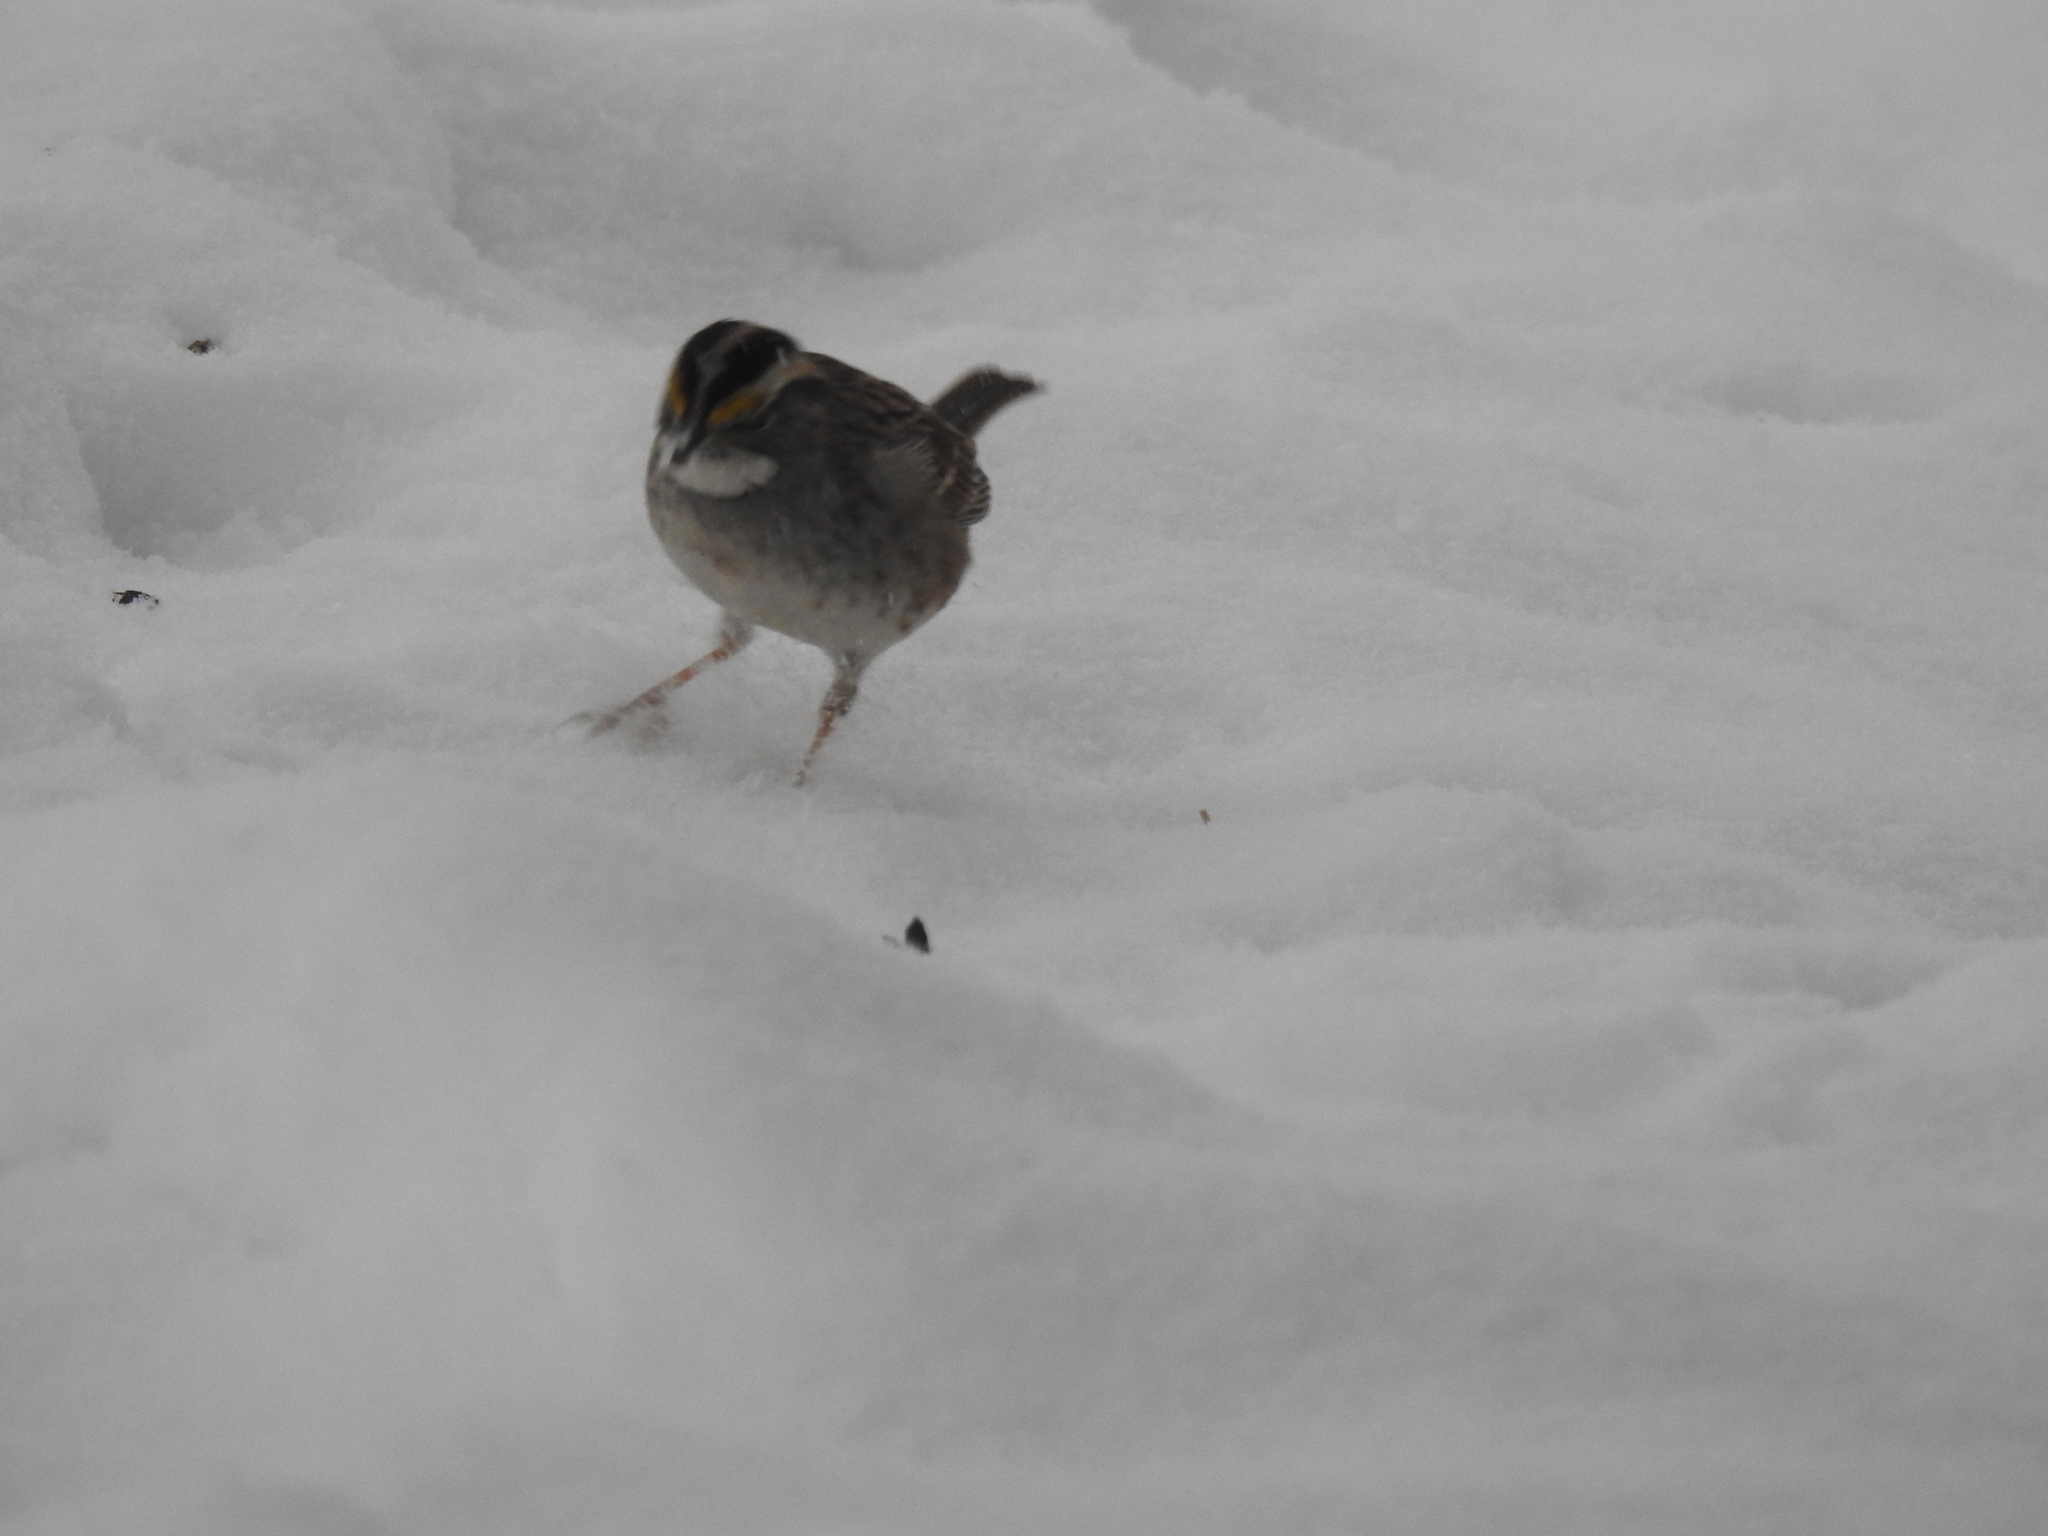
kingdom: Animalia
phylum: Chordata
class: Aves
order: Passeriformes
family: Passerellidae
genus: Zonotrichia
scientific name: Zonotrichia albicollis
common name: White-throated sparrow
